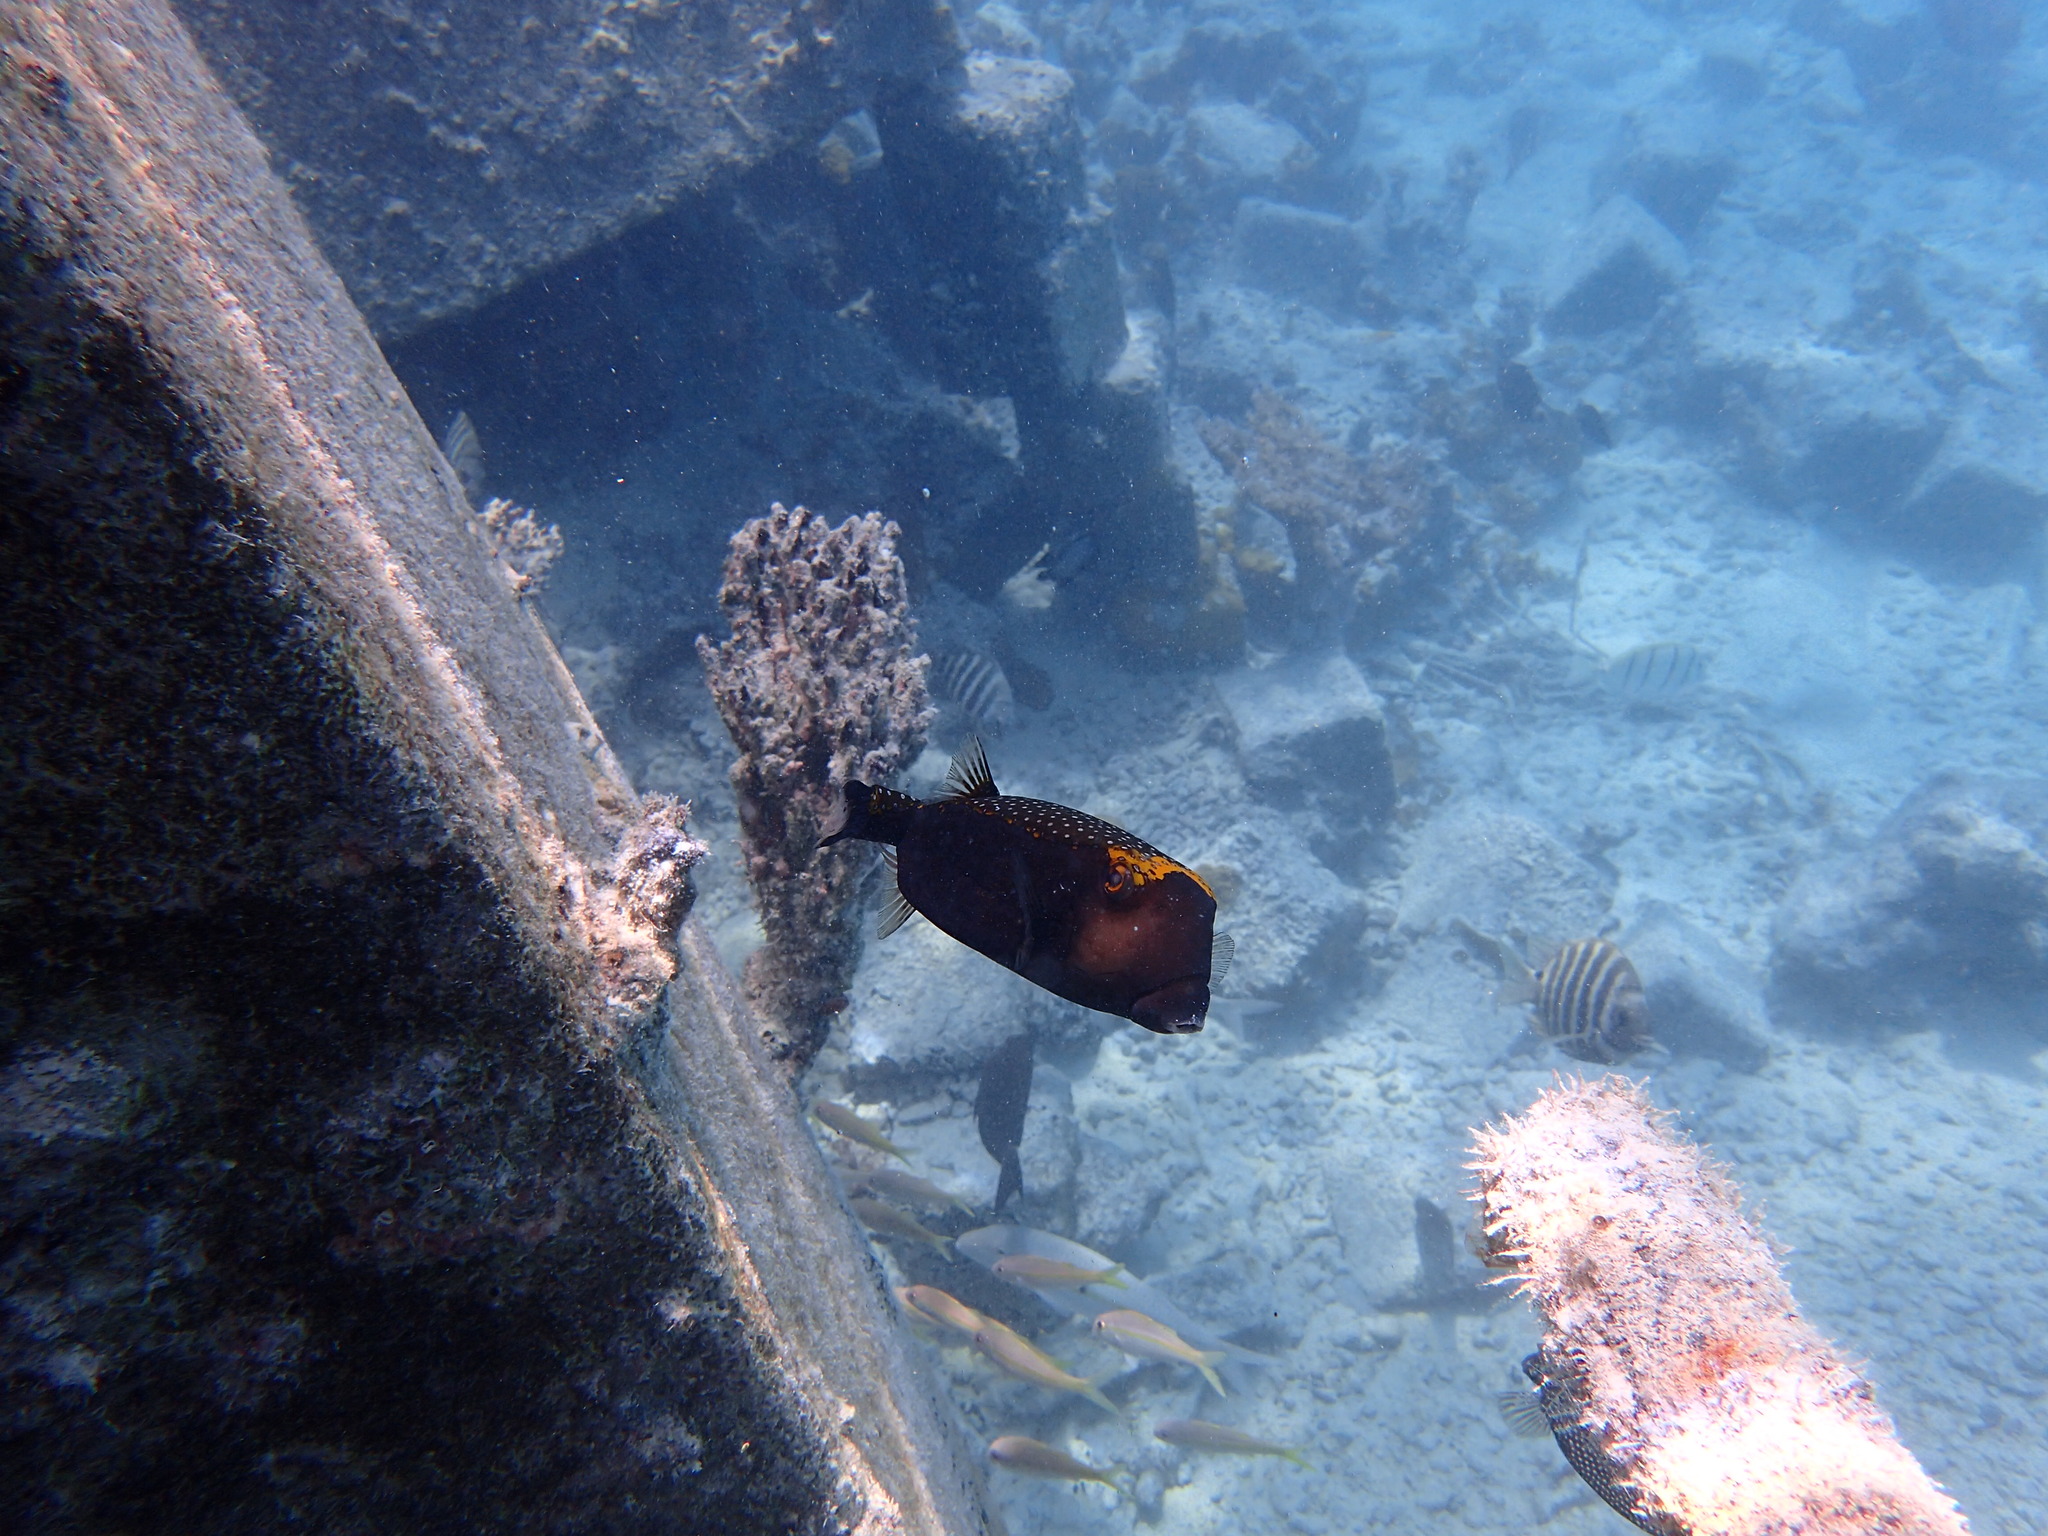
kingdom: Animalia
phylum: Chordata
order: Tetraodontiformes
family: Ostraciidae
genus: Ostracion
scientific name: Ostracion meleagris
